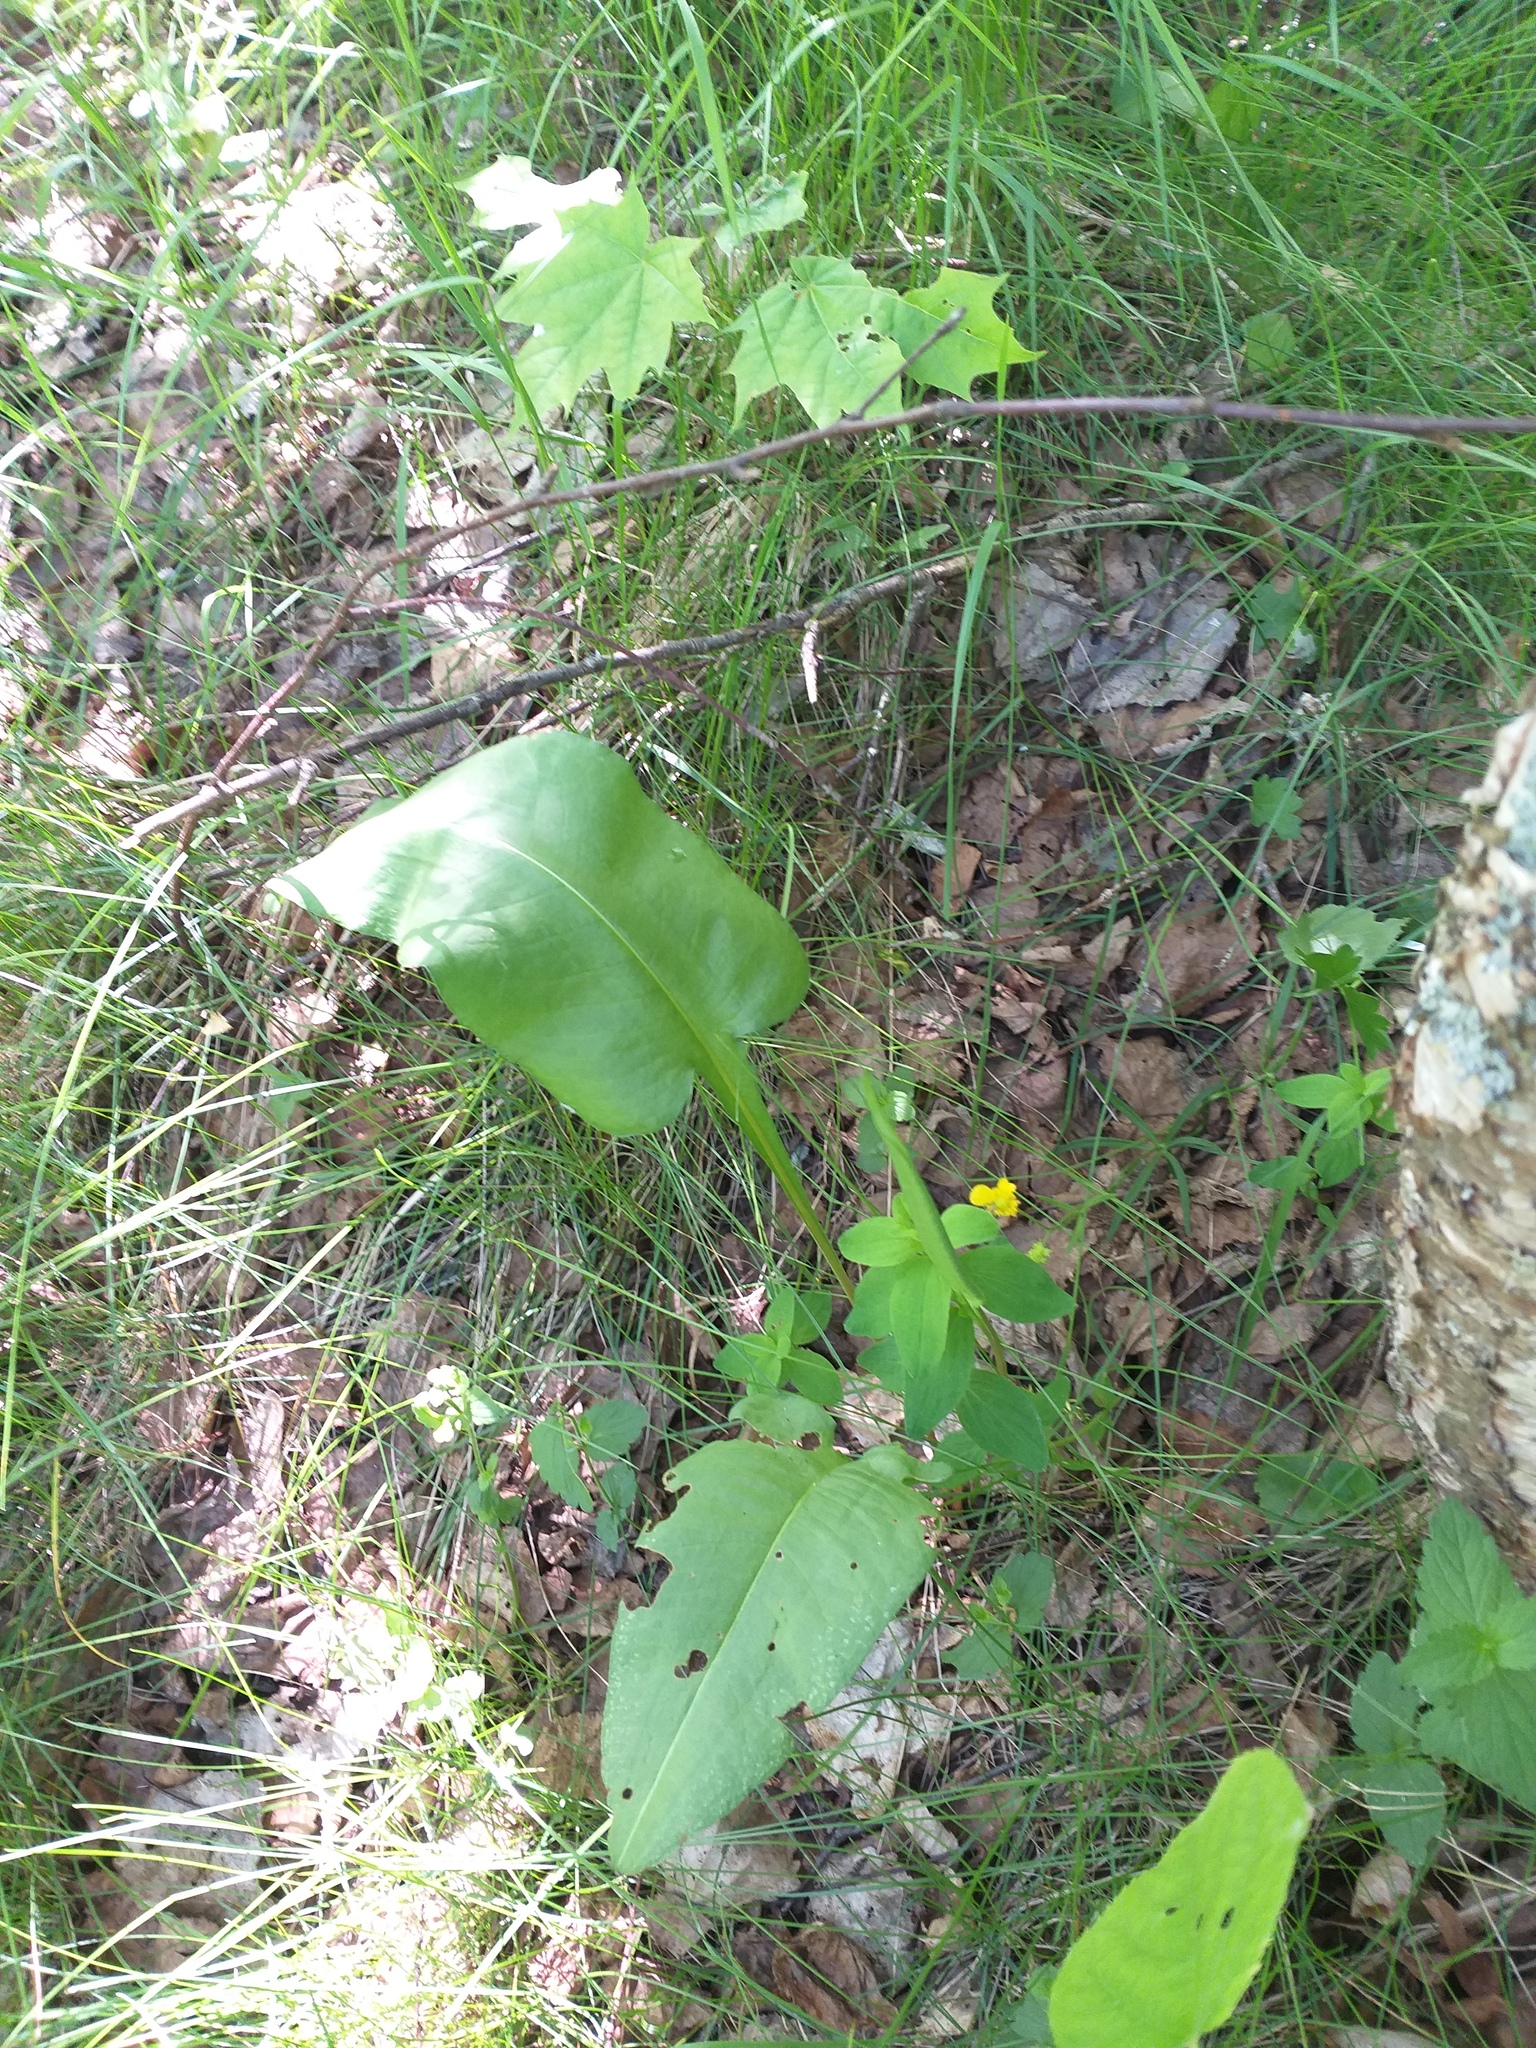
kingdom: Plantae
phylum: Tracheophyta
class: Magnoliopsida
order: Caryophyllales
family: Polygonaceae
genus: Bistorta
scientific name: Bistorta officinalis
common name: Common bistort
